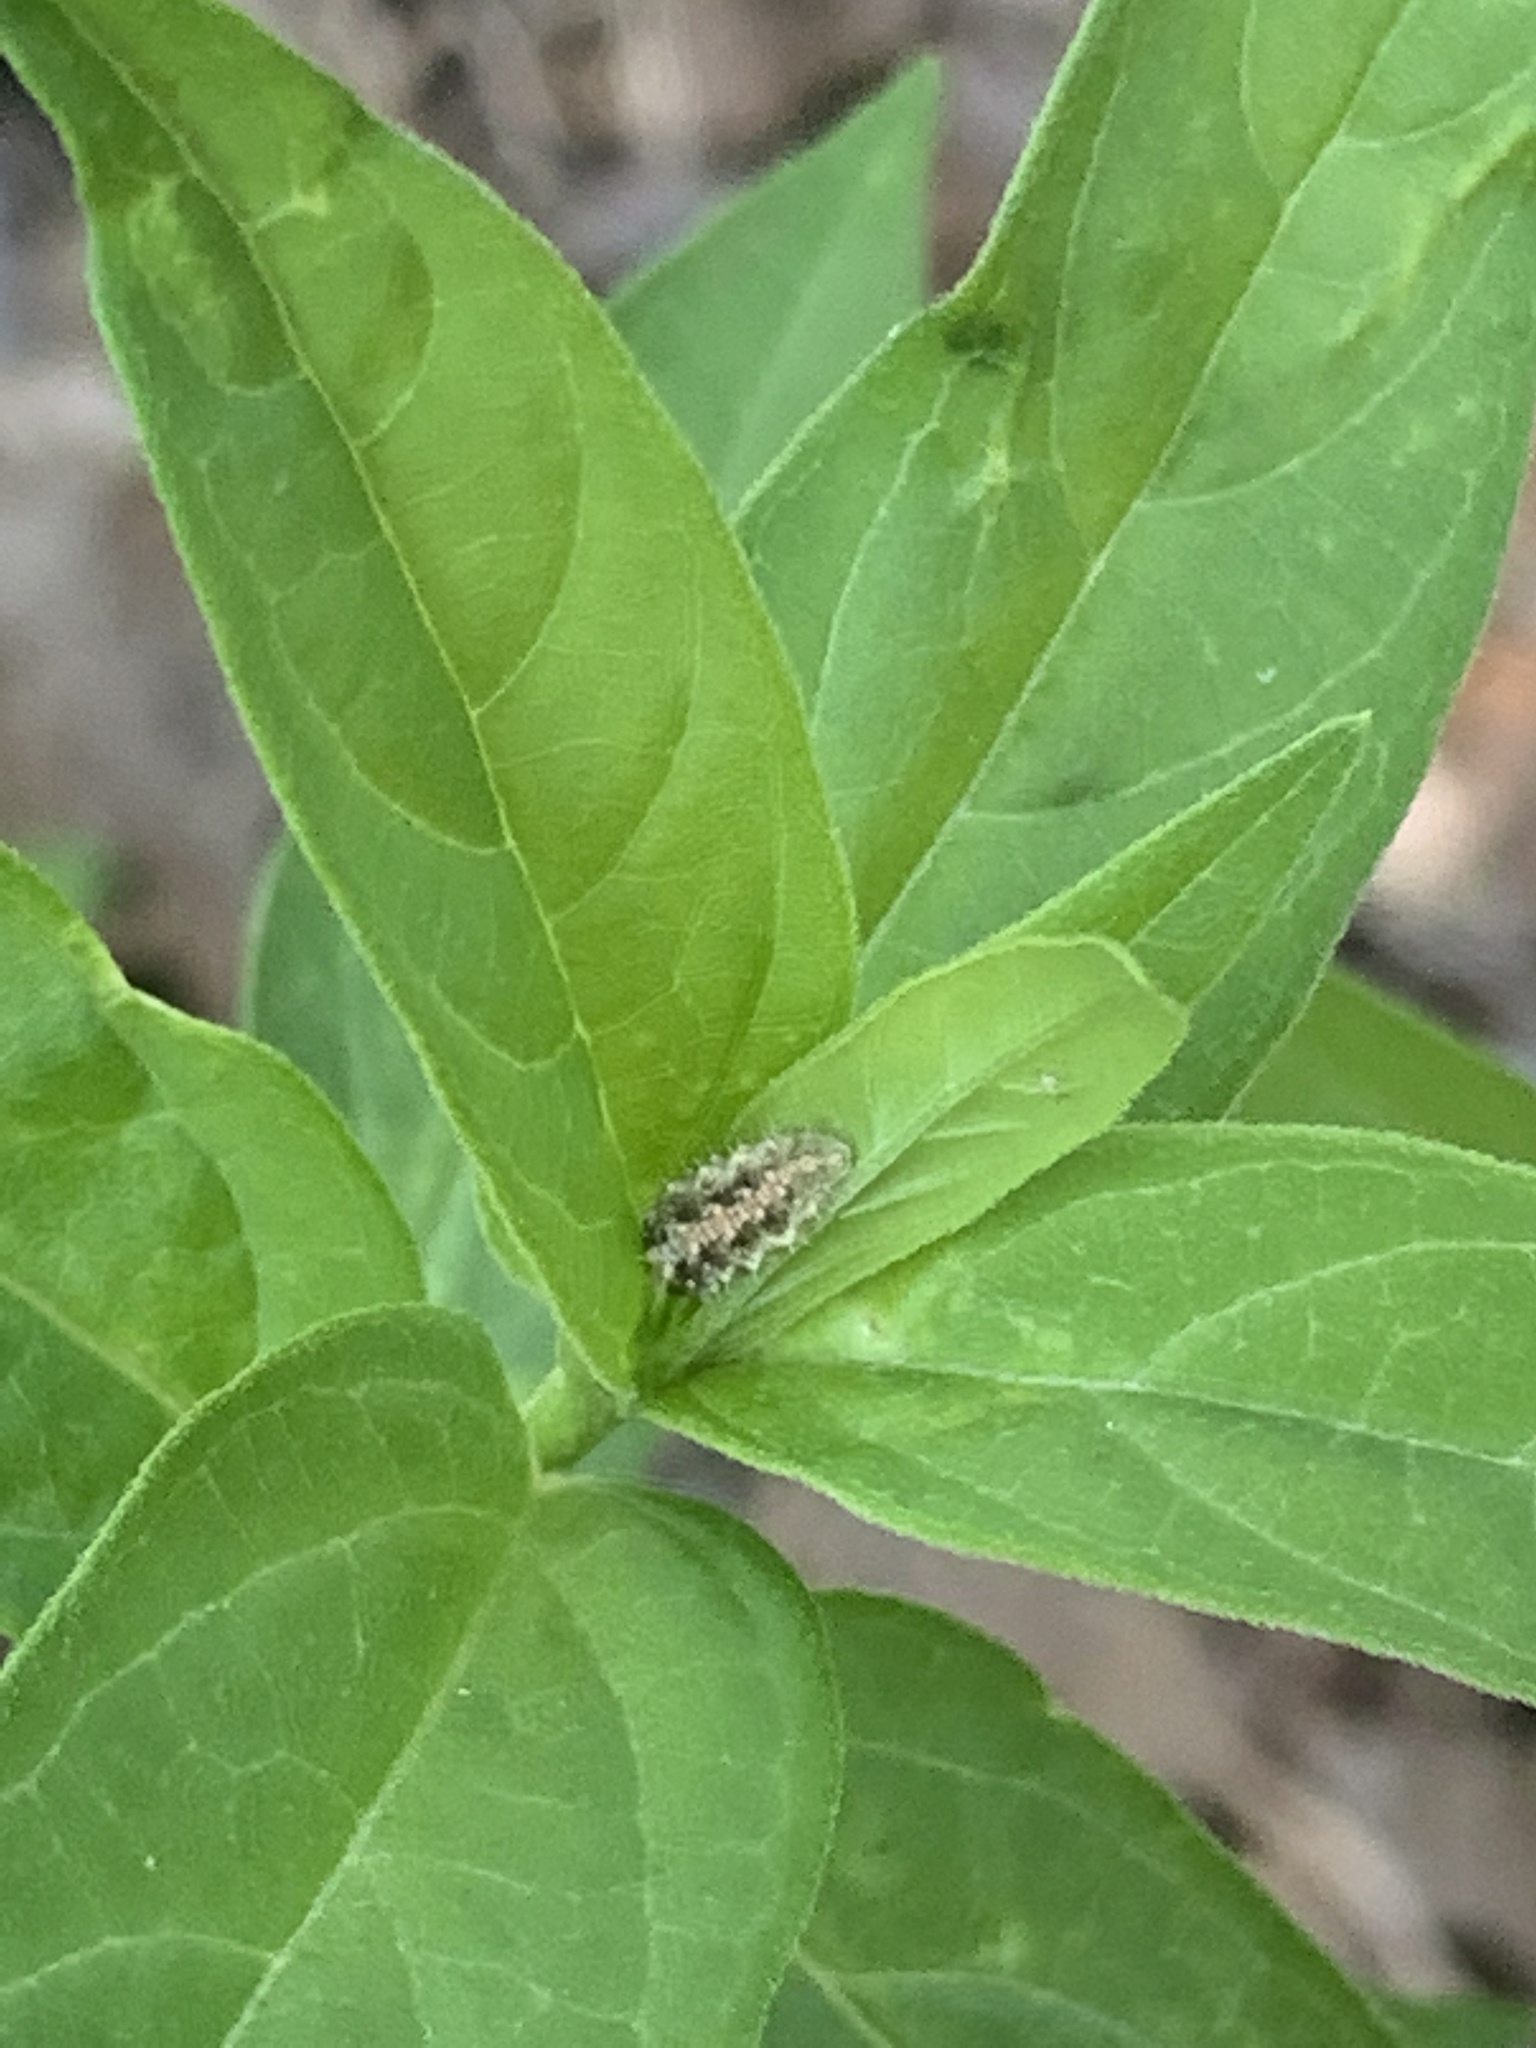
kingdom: Animalia
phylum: Arthropoda
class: Insecta
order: Diptera
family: Syrphidae
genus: Dioprosopa
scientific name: Dioprosopa clavatus
